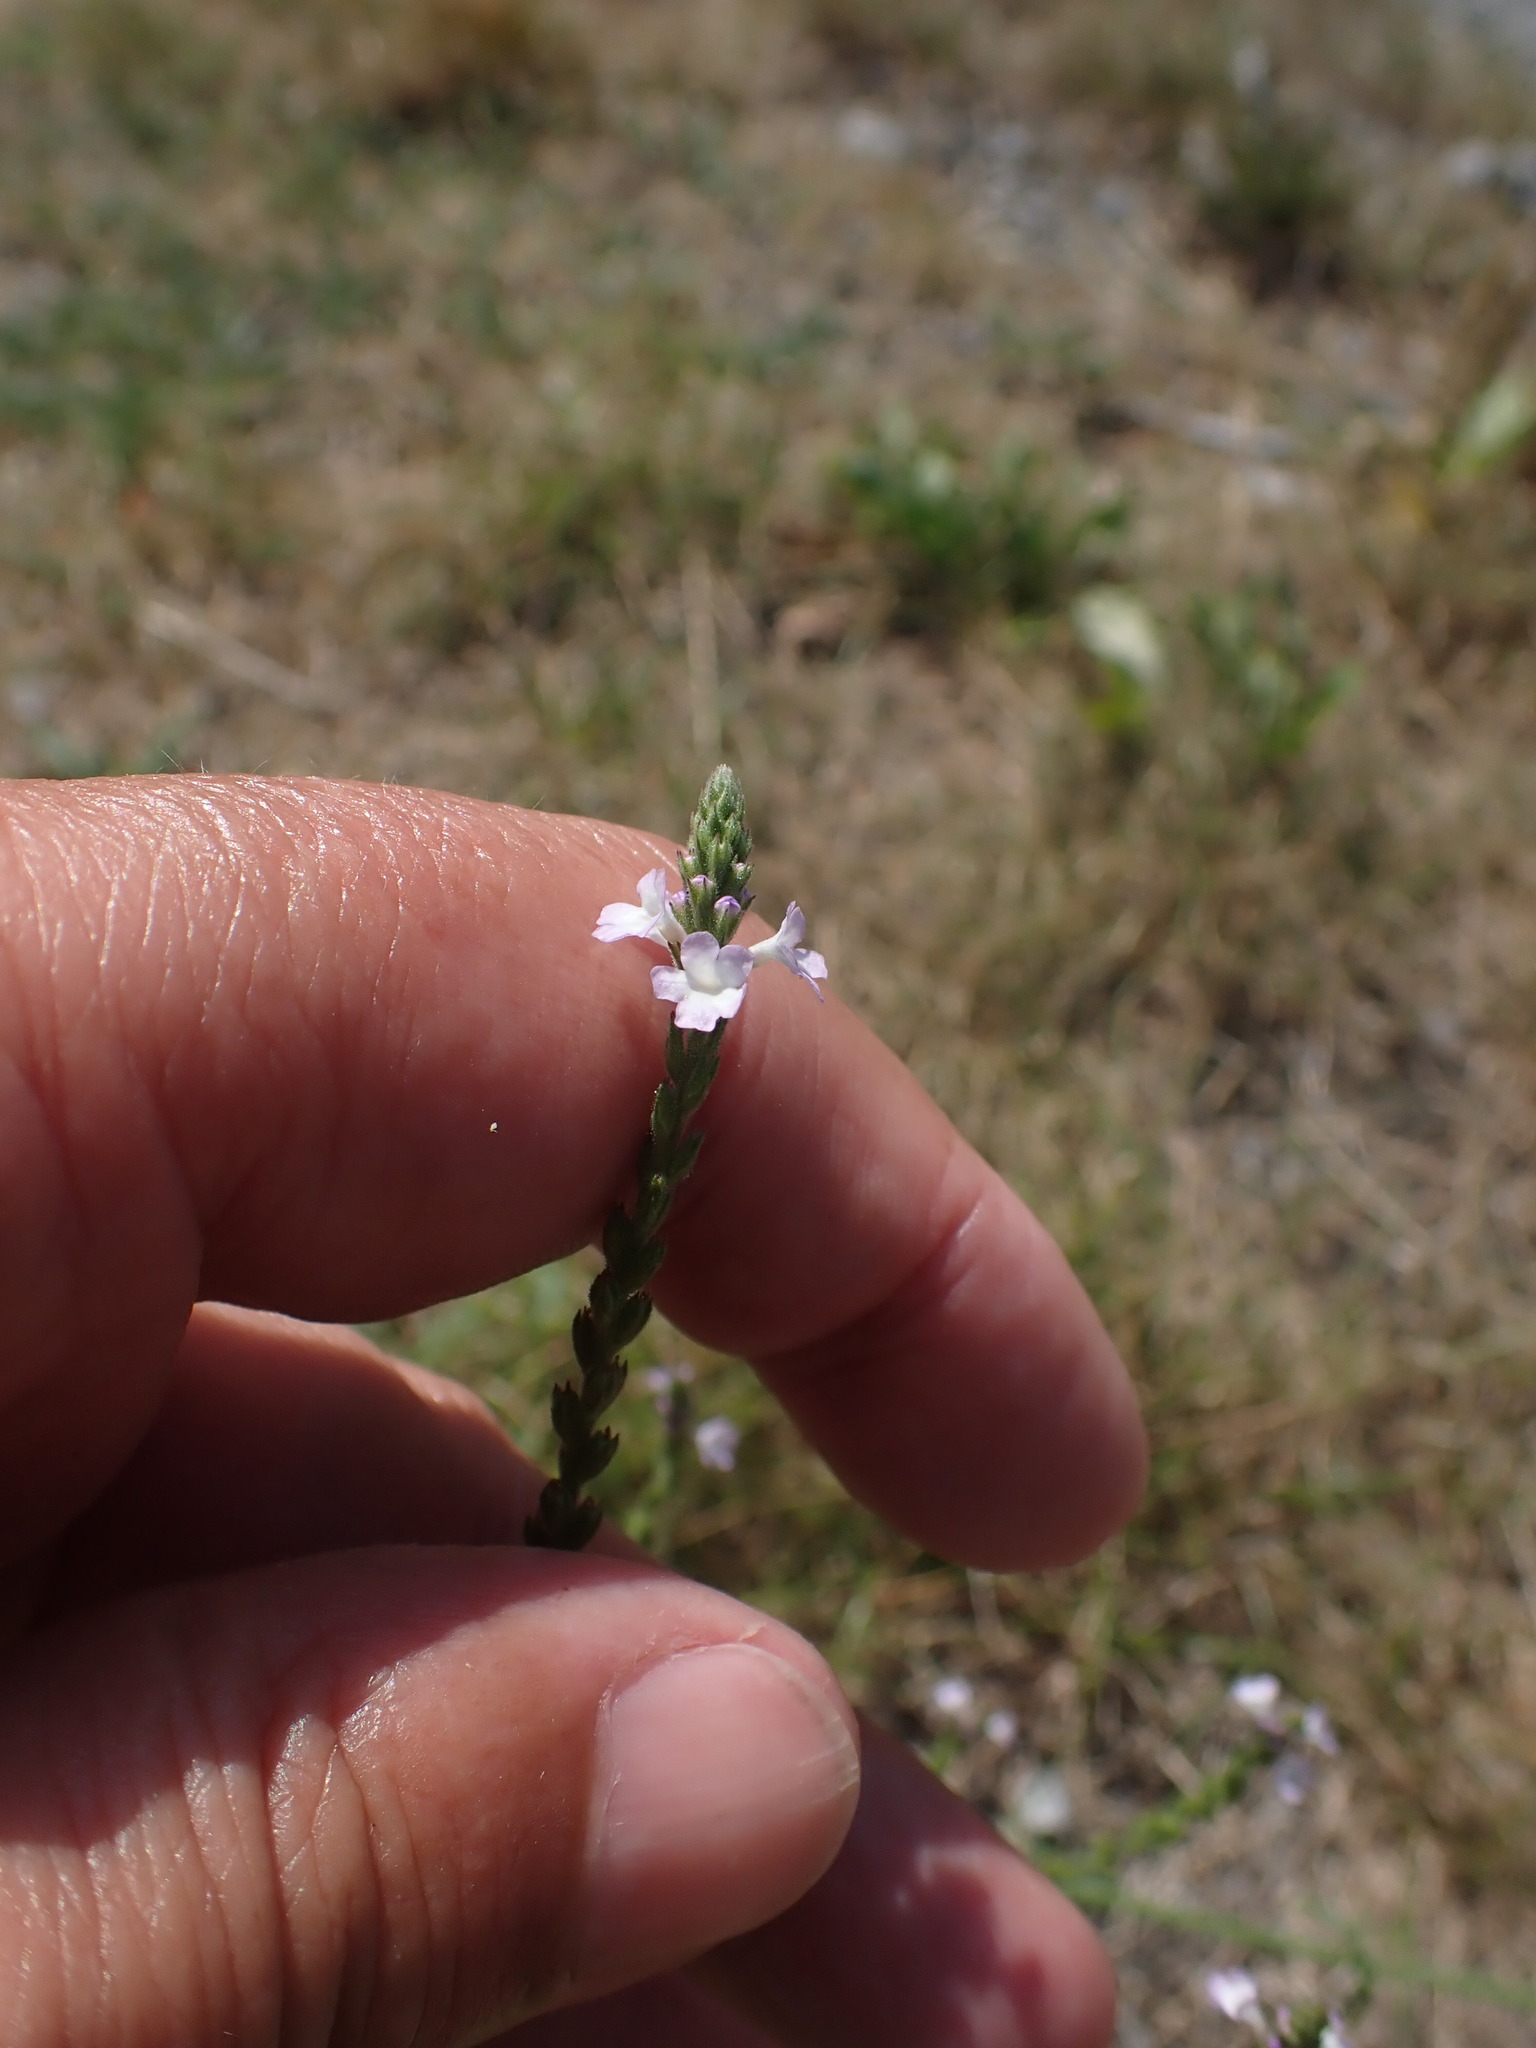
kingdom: Plantae
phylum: Tracheophyta
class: Magnoliopsida
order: Lamiales
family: Verbenaceae
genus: Verbena
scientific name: Verbena officinalis
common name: Vervain
